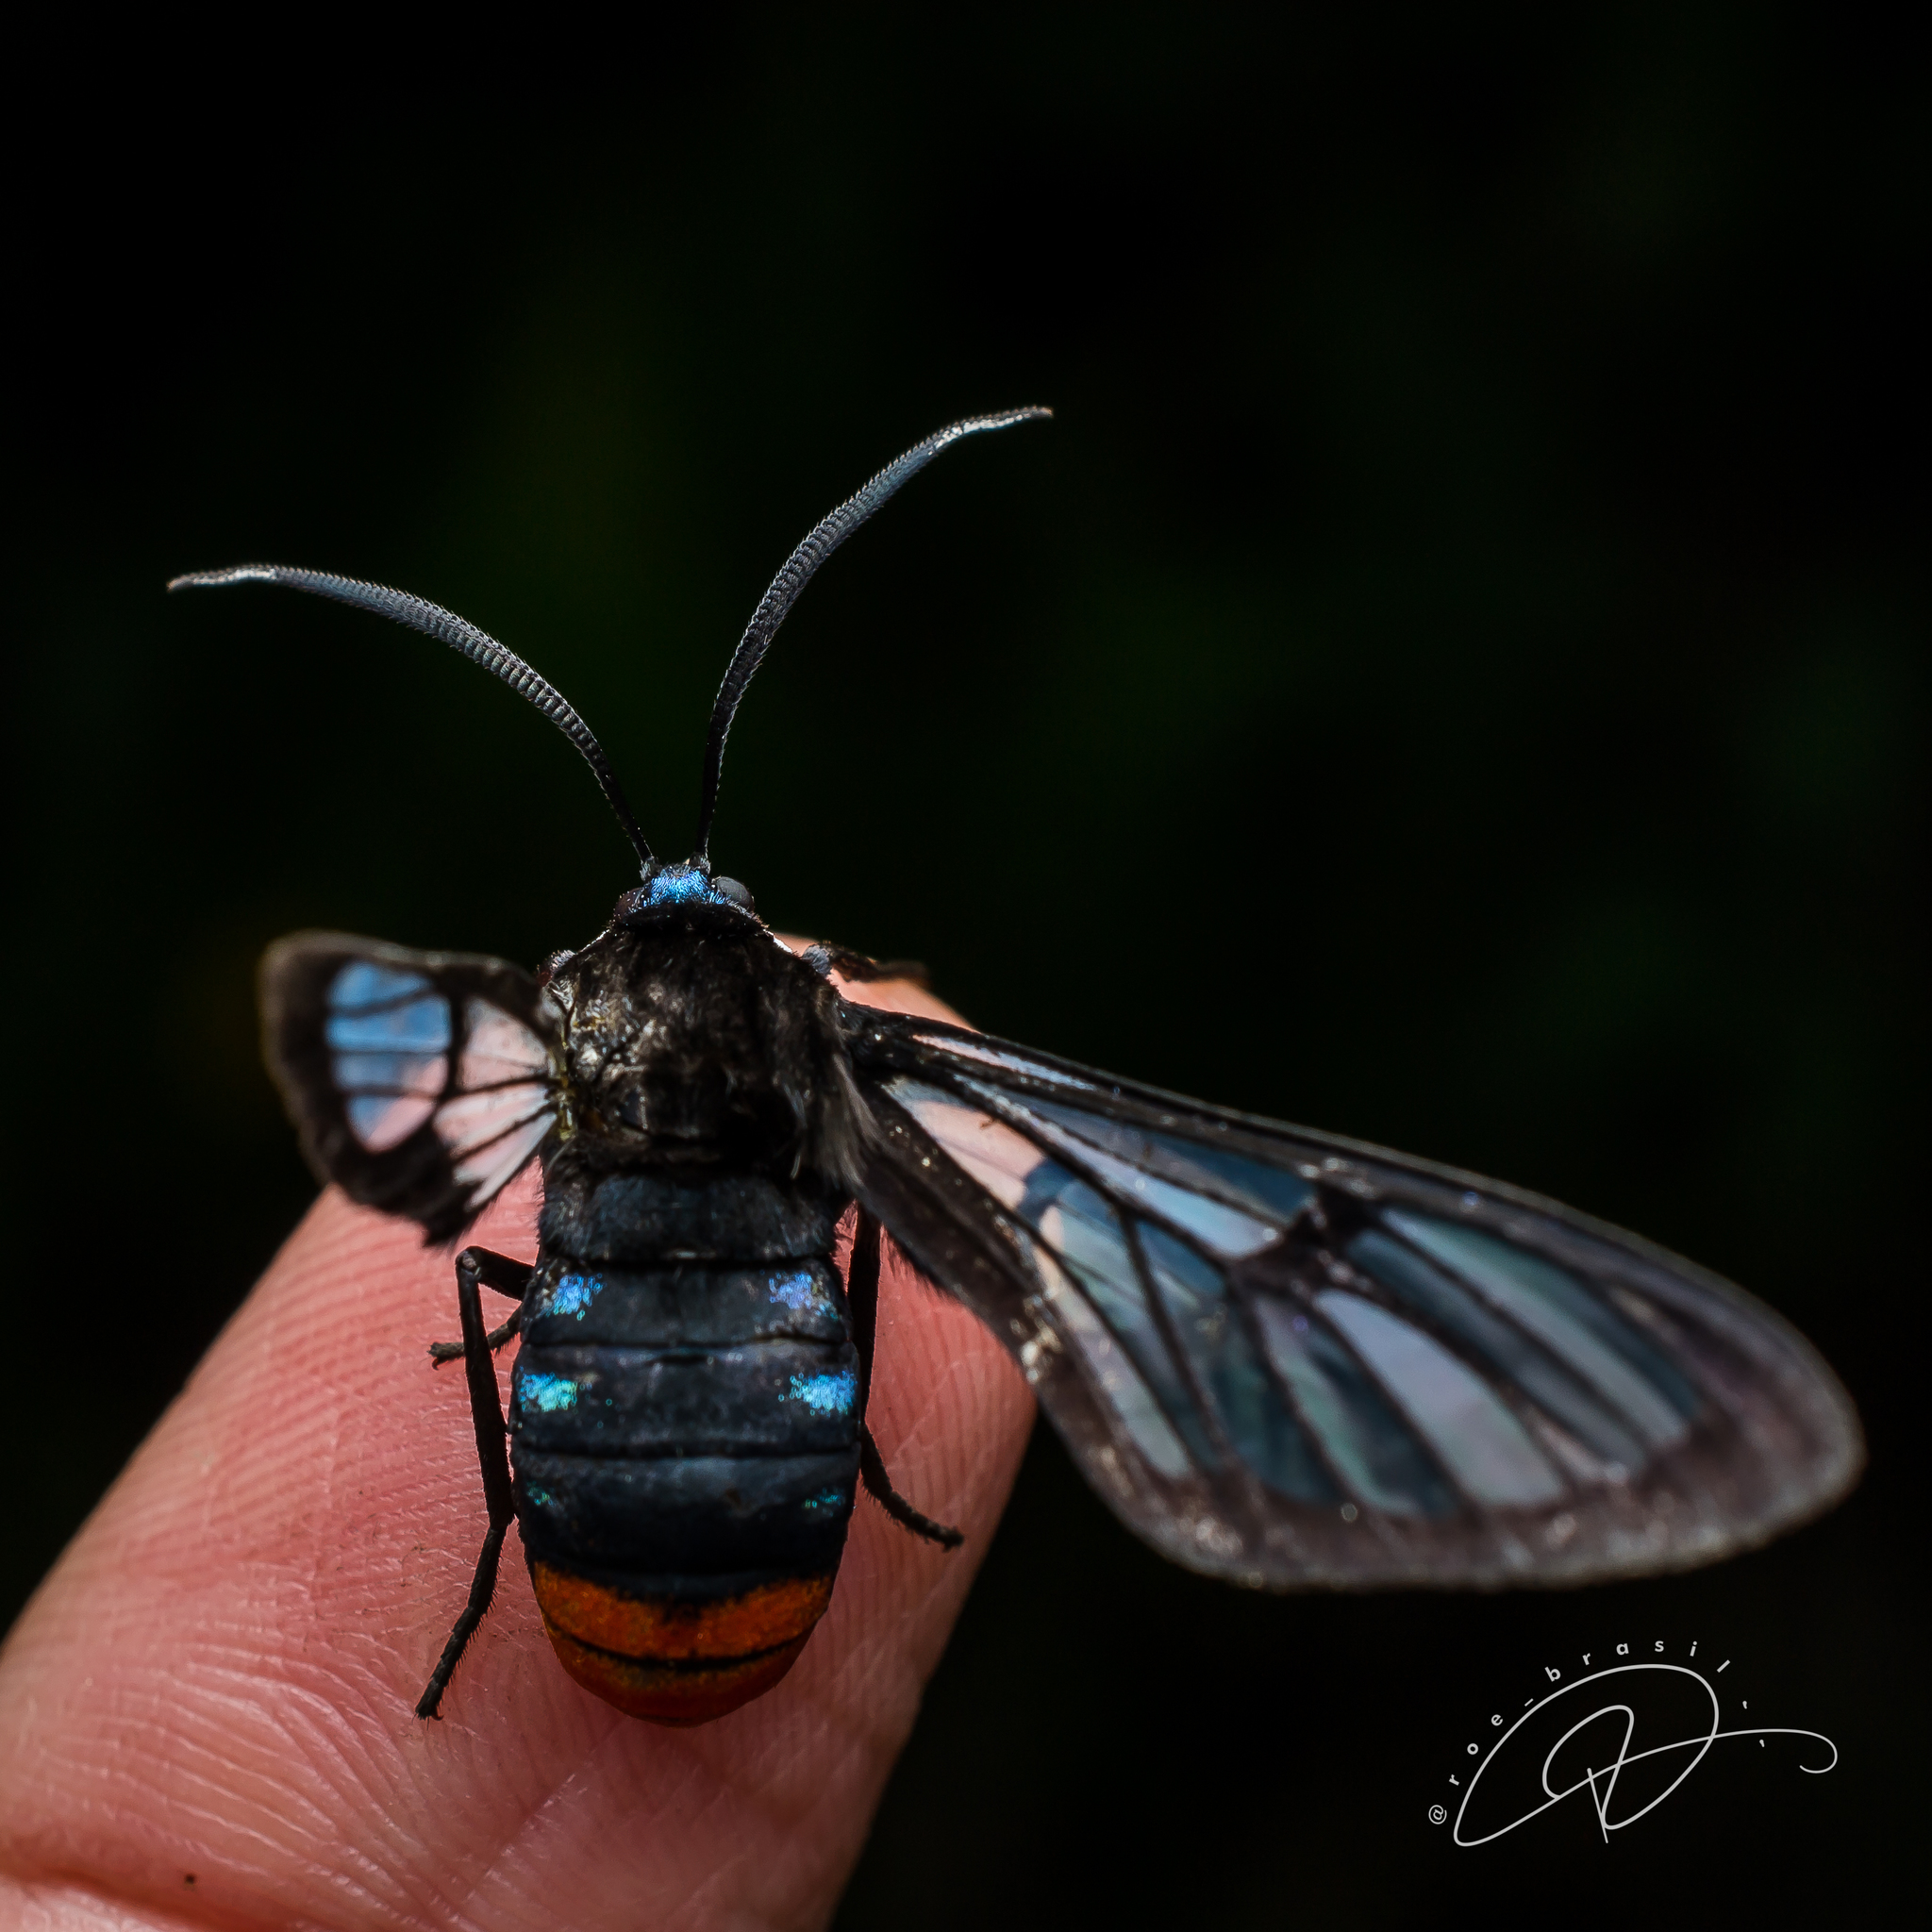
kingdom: Animalia
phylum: Arthropoda
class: Insecta
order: Lepidoptera
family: Erebidae
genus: Gymnelia
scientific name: Gymnelia paranapanema
